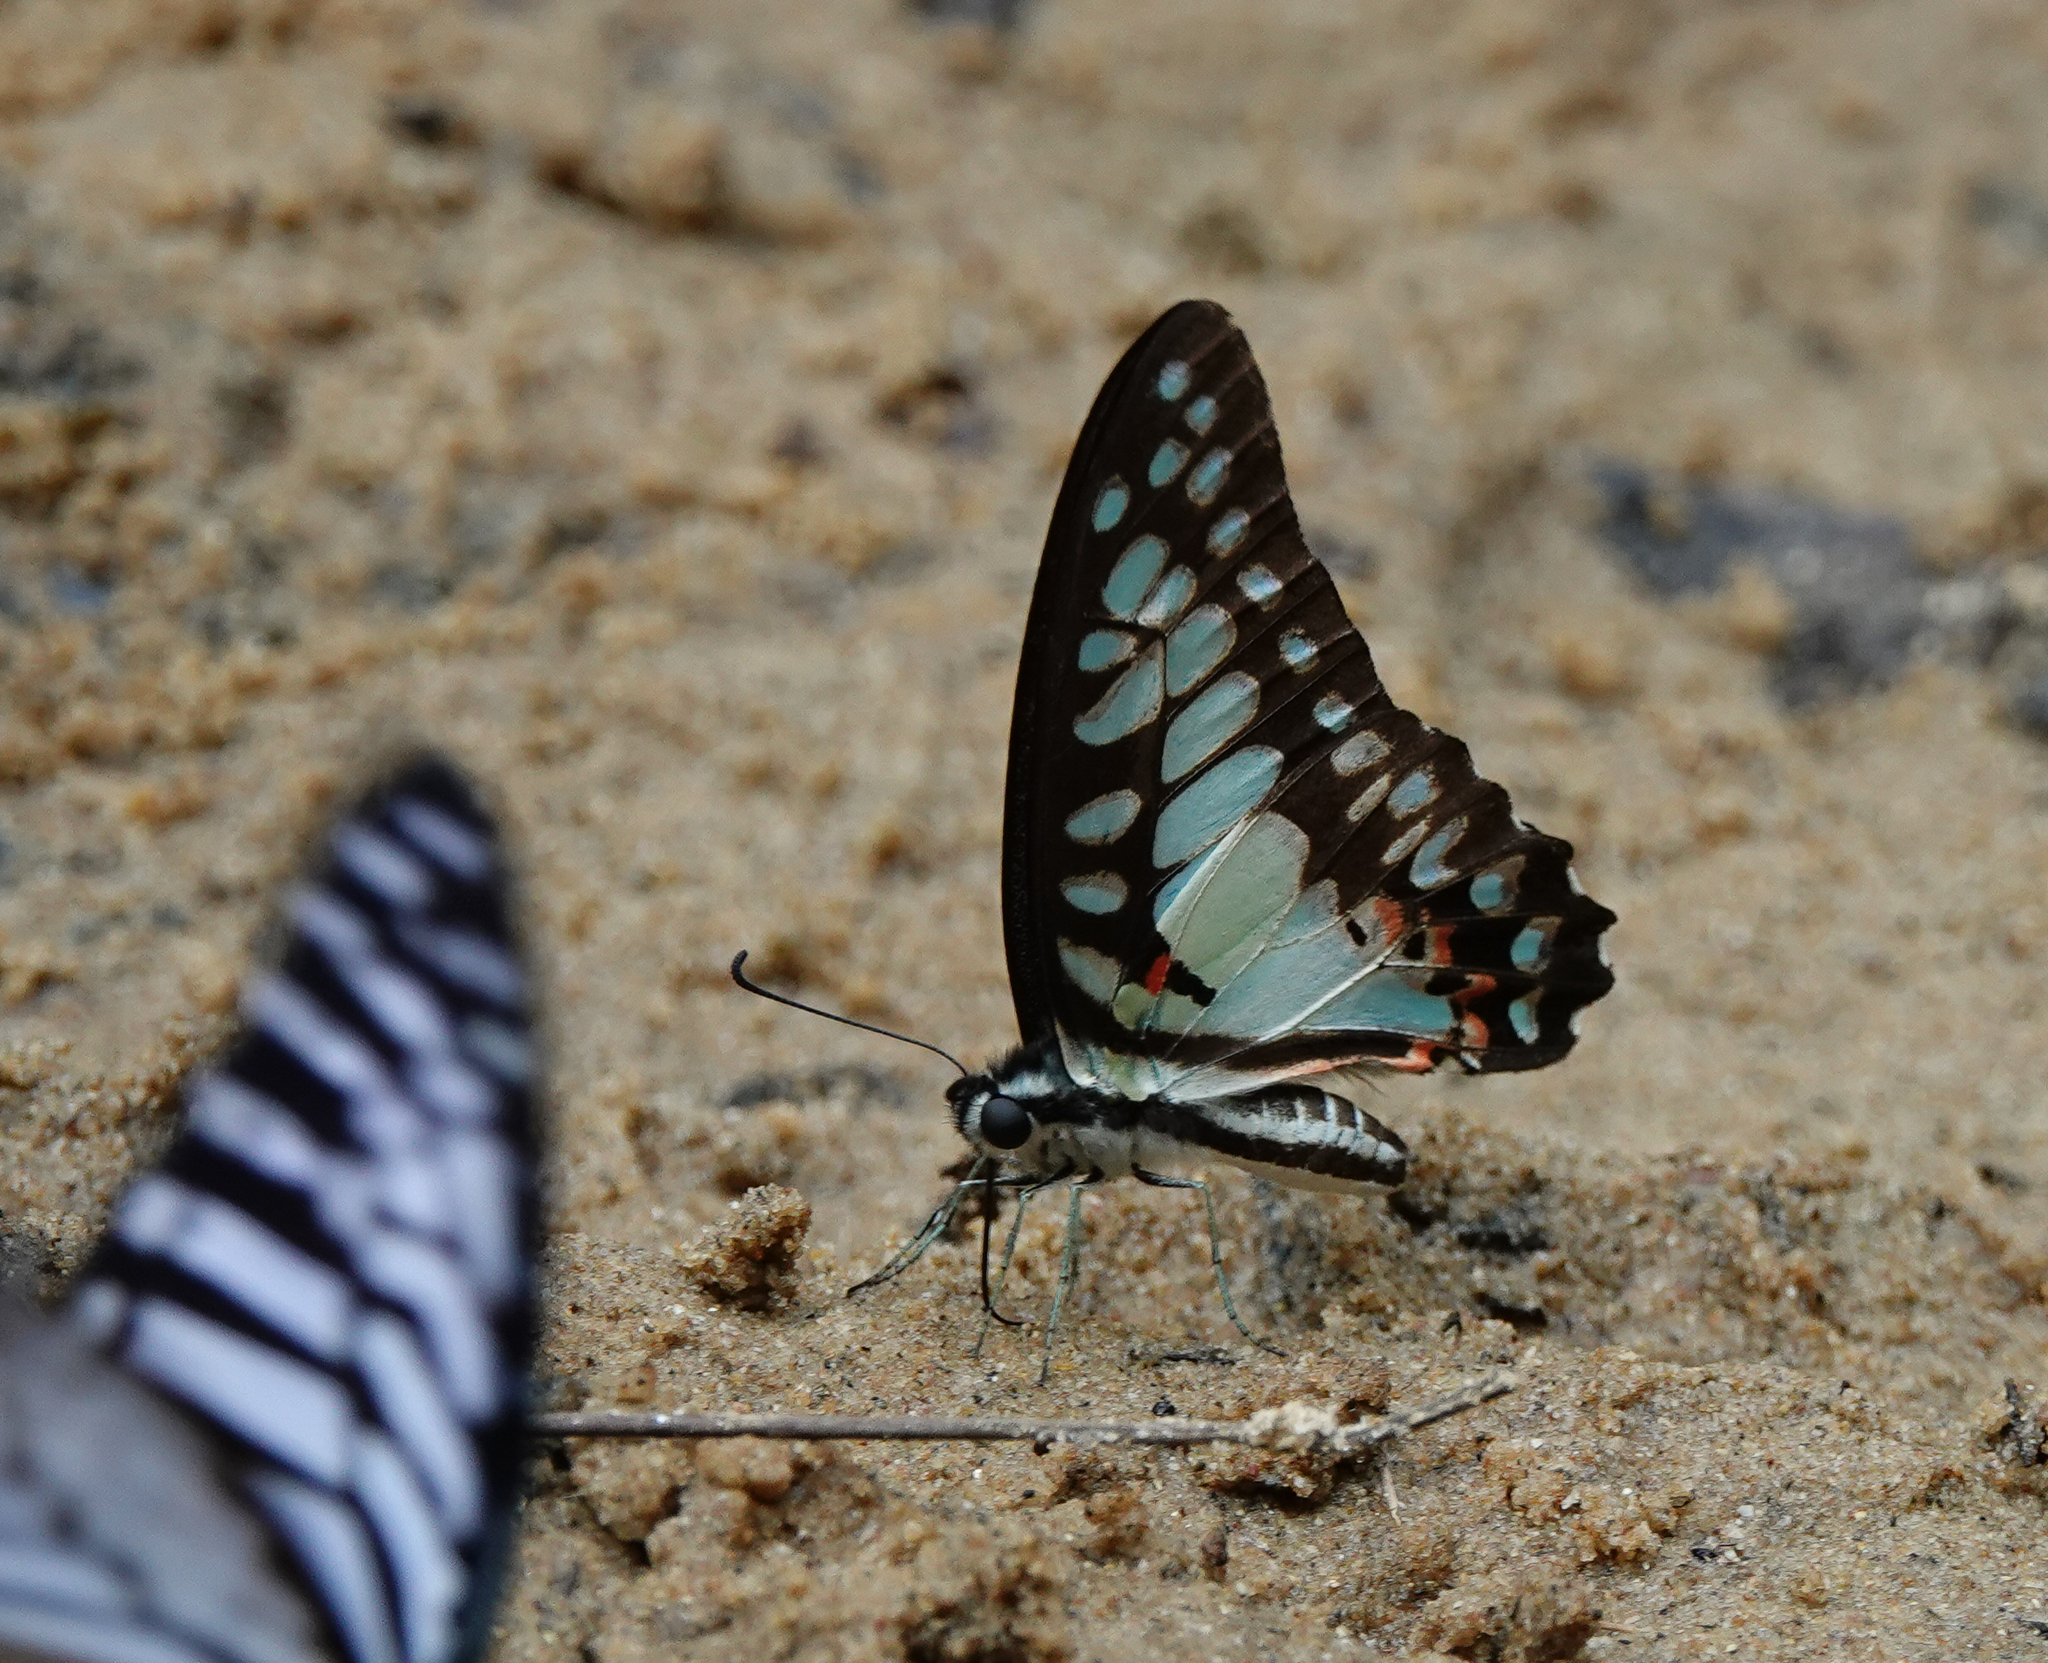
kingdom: Animalia
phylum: Arthropoda
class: Insecta
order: Lepidoptera
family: Papilionidae
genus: Graphium
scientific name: Graphium doson
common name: Common jay
